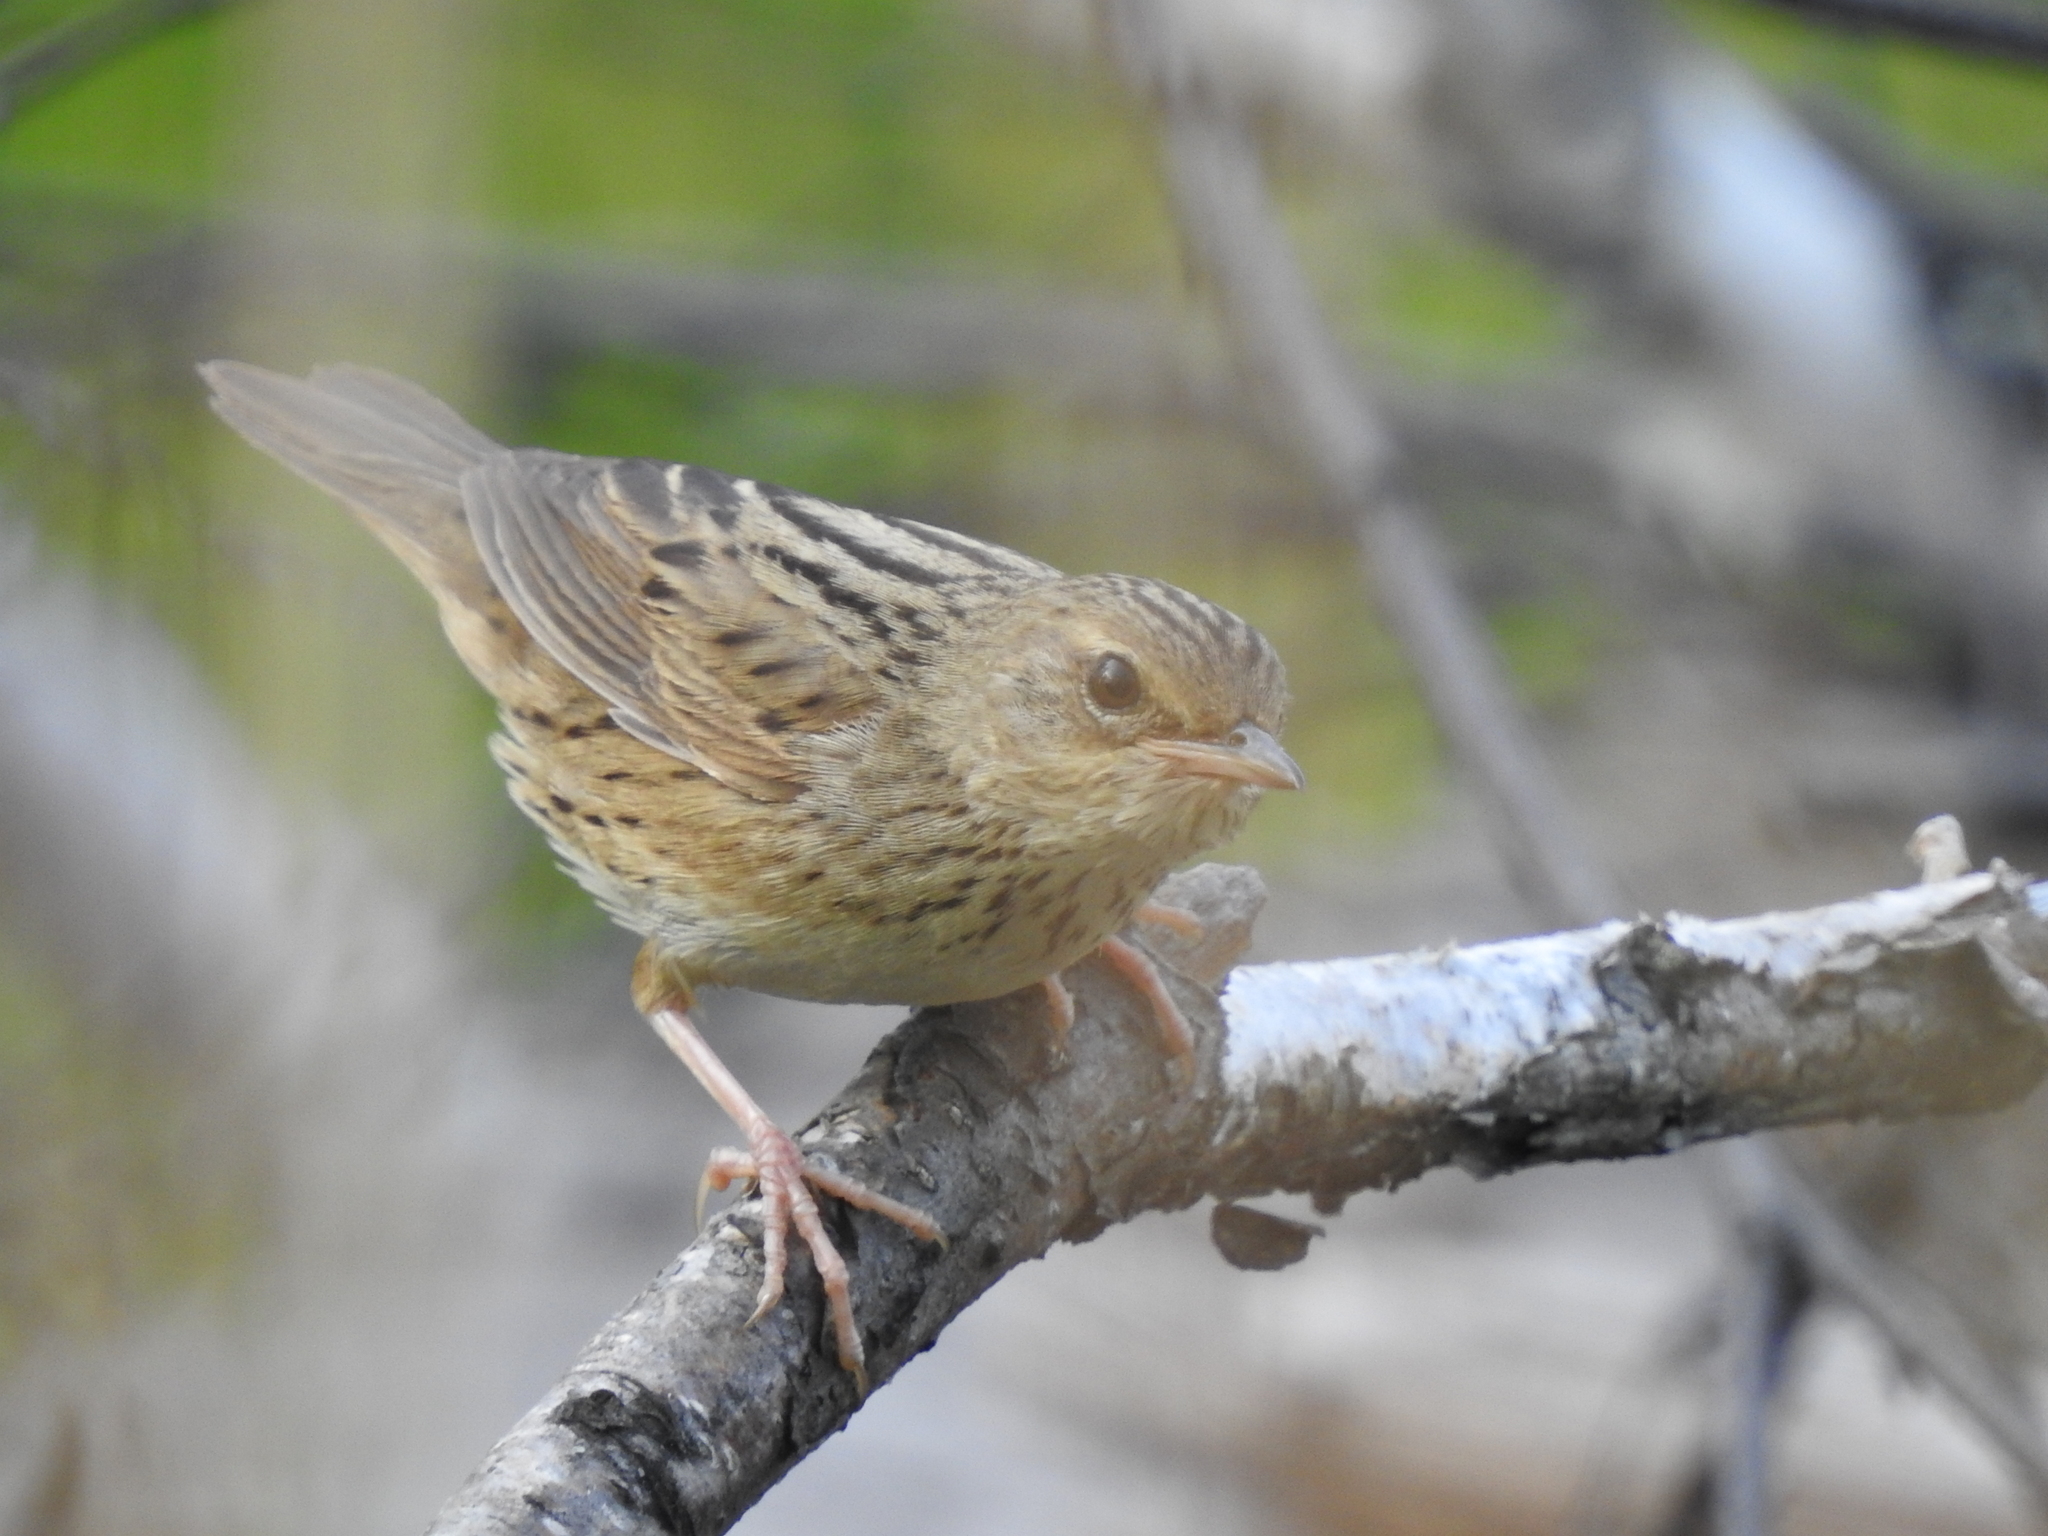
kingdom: Animalia
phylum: Chordata
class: Aves
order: Passeriformes
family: Locustellidae
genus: Locustella
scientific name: Locustella lanceolata
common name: Lanceolated warbler
